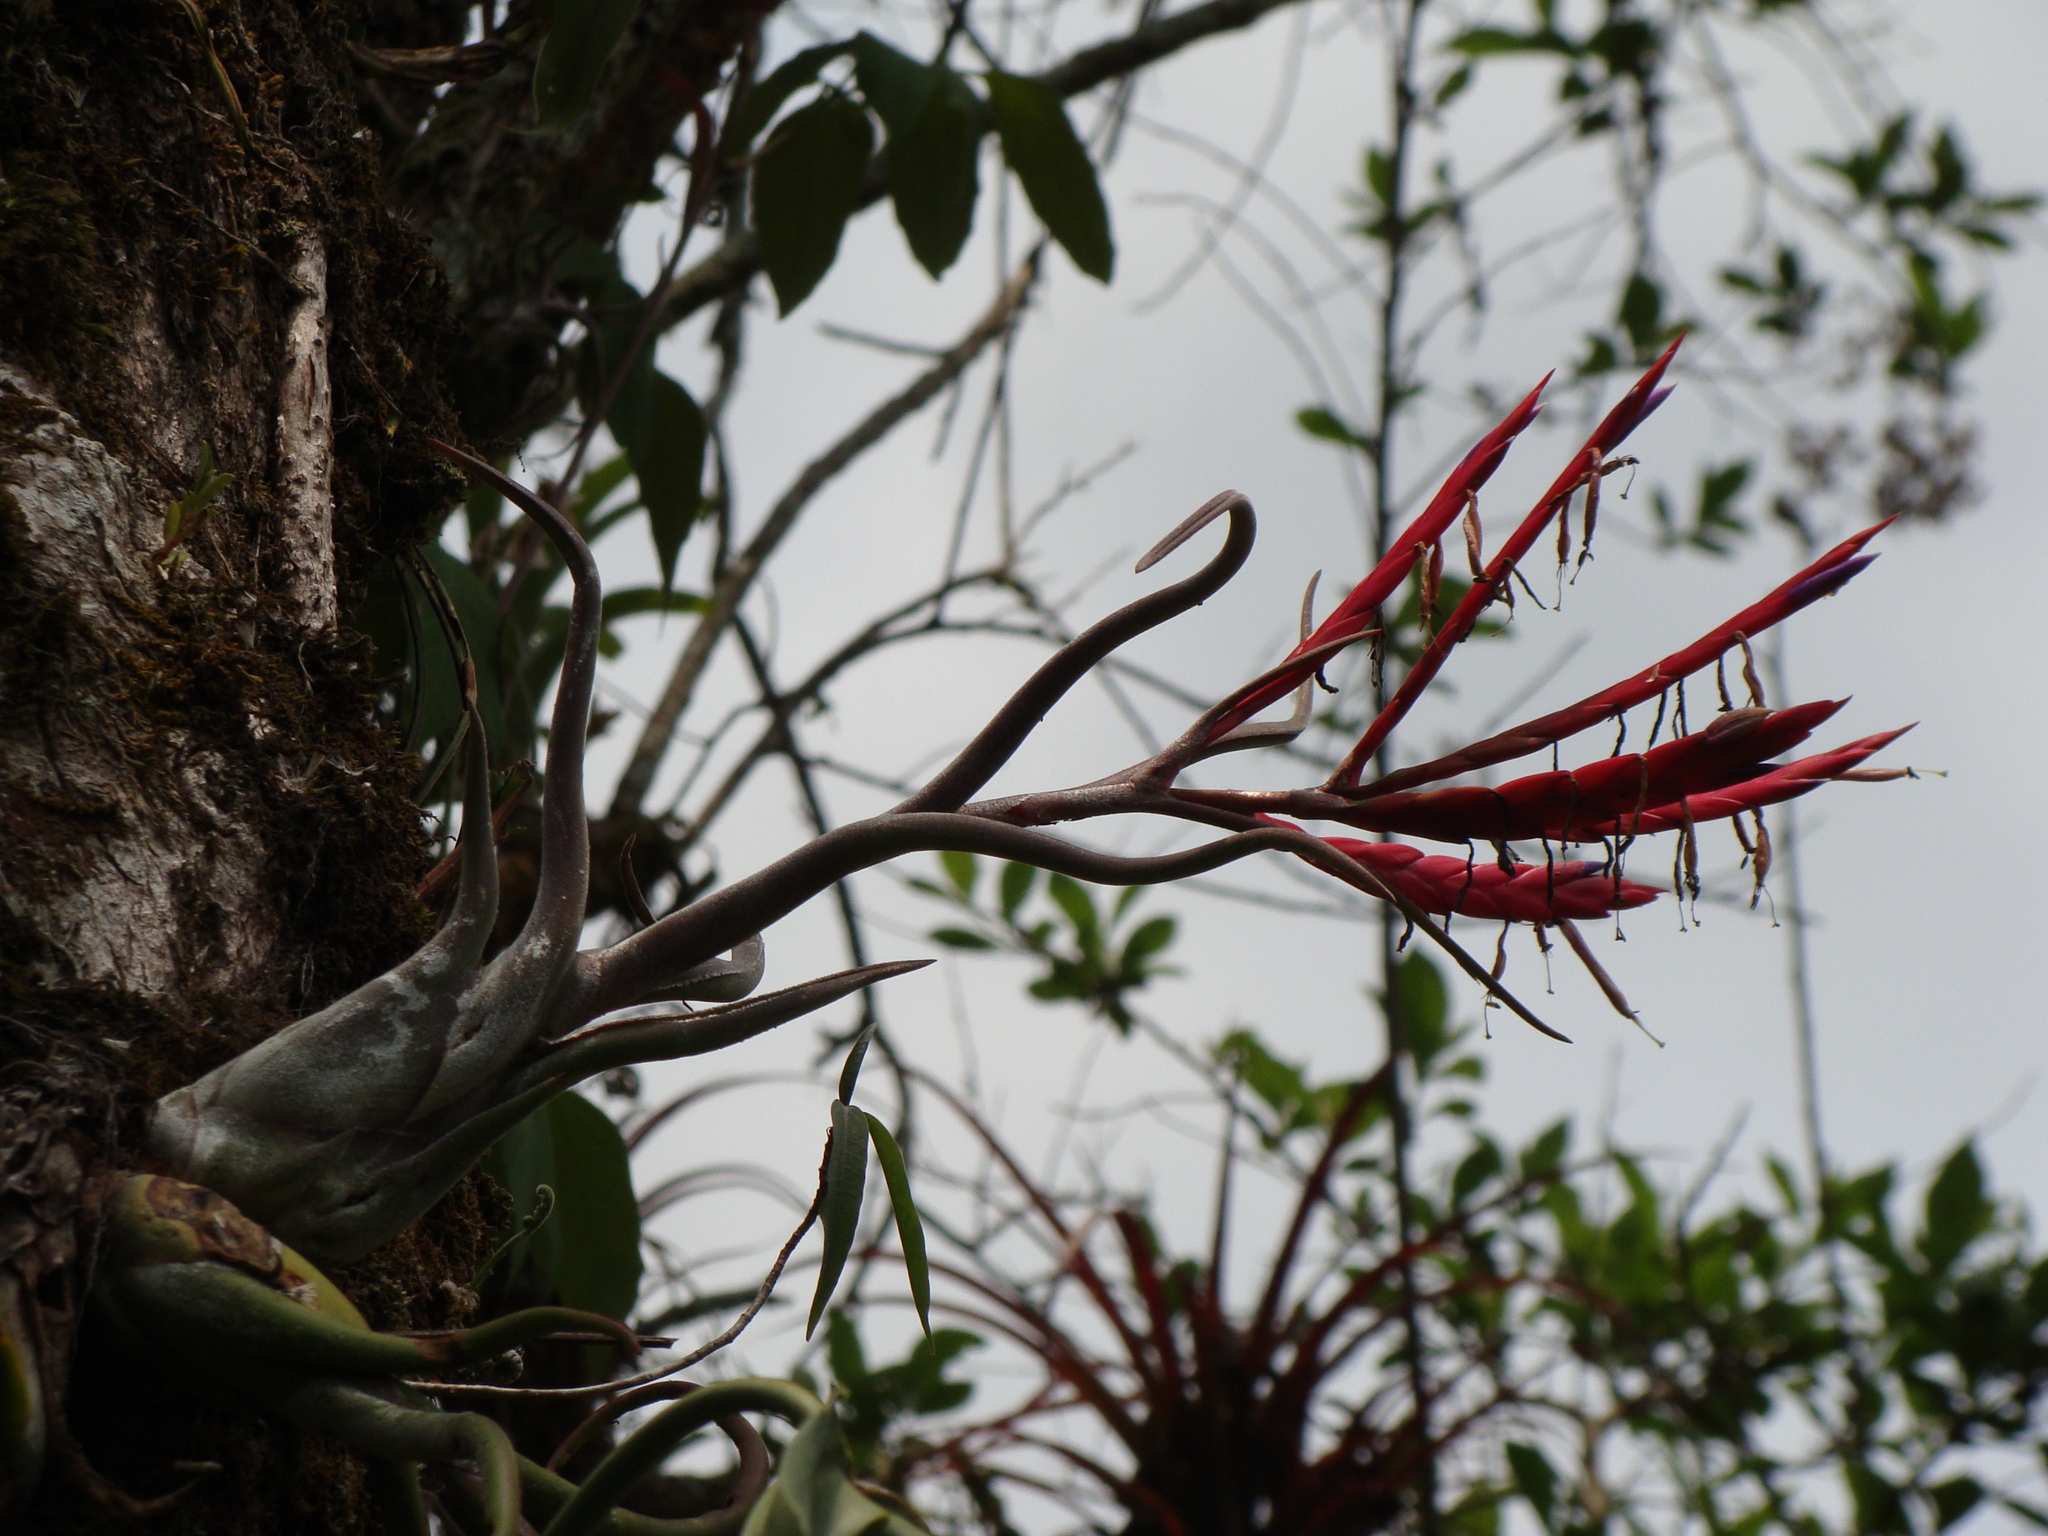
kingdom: Plantae
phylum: Tracheophyta
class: Liliopsida
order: Poales
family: Bromeliaceae
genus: Tillandsia
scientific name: Tillandsia caput-medusae
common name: Octopus plant
